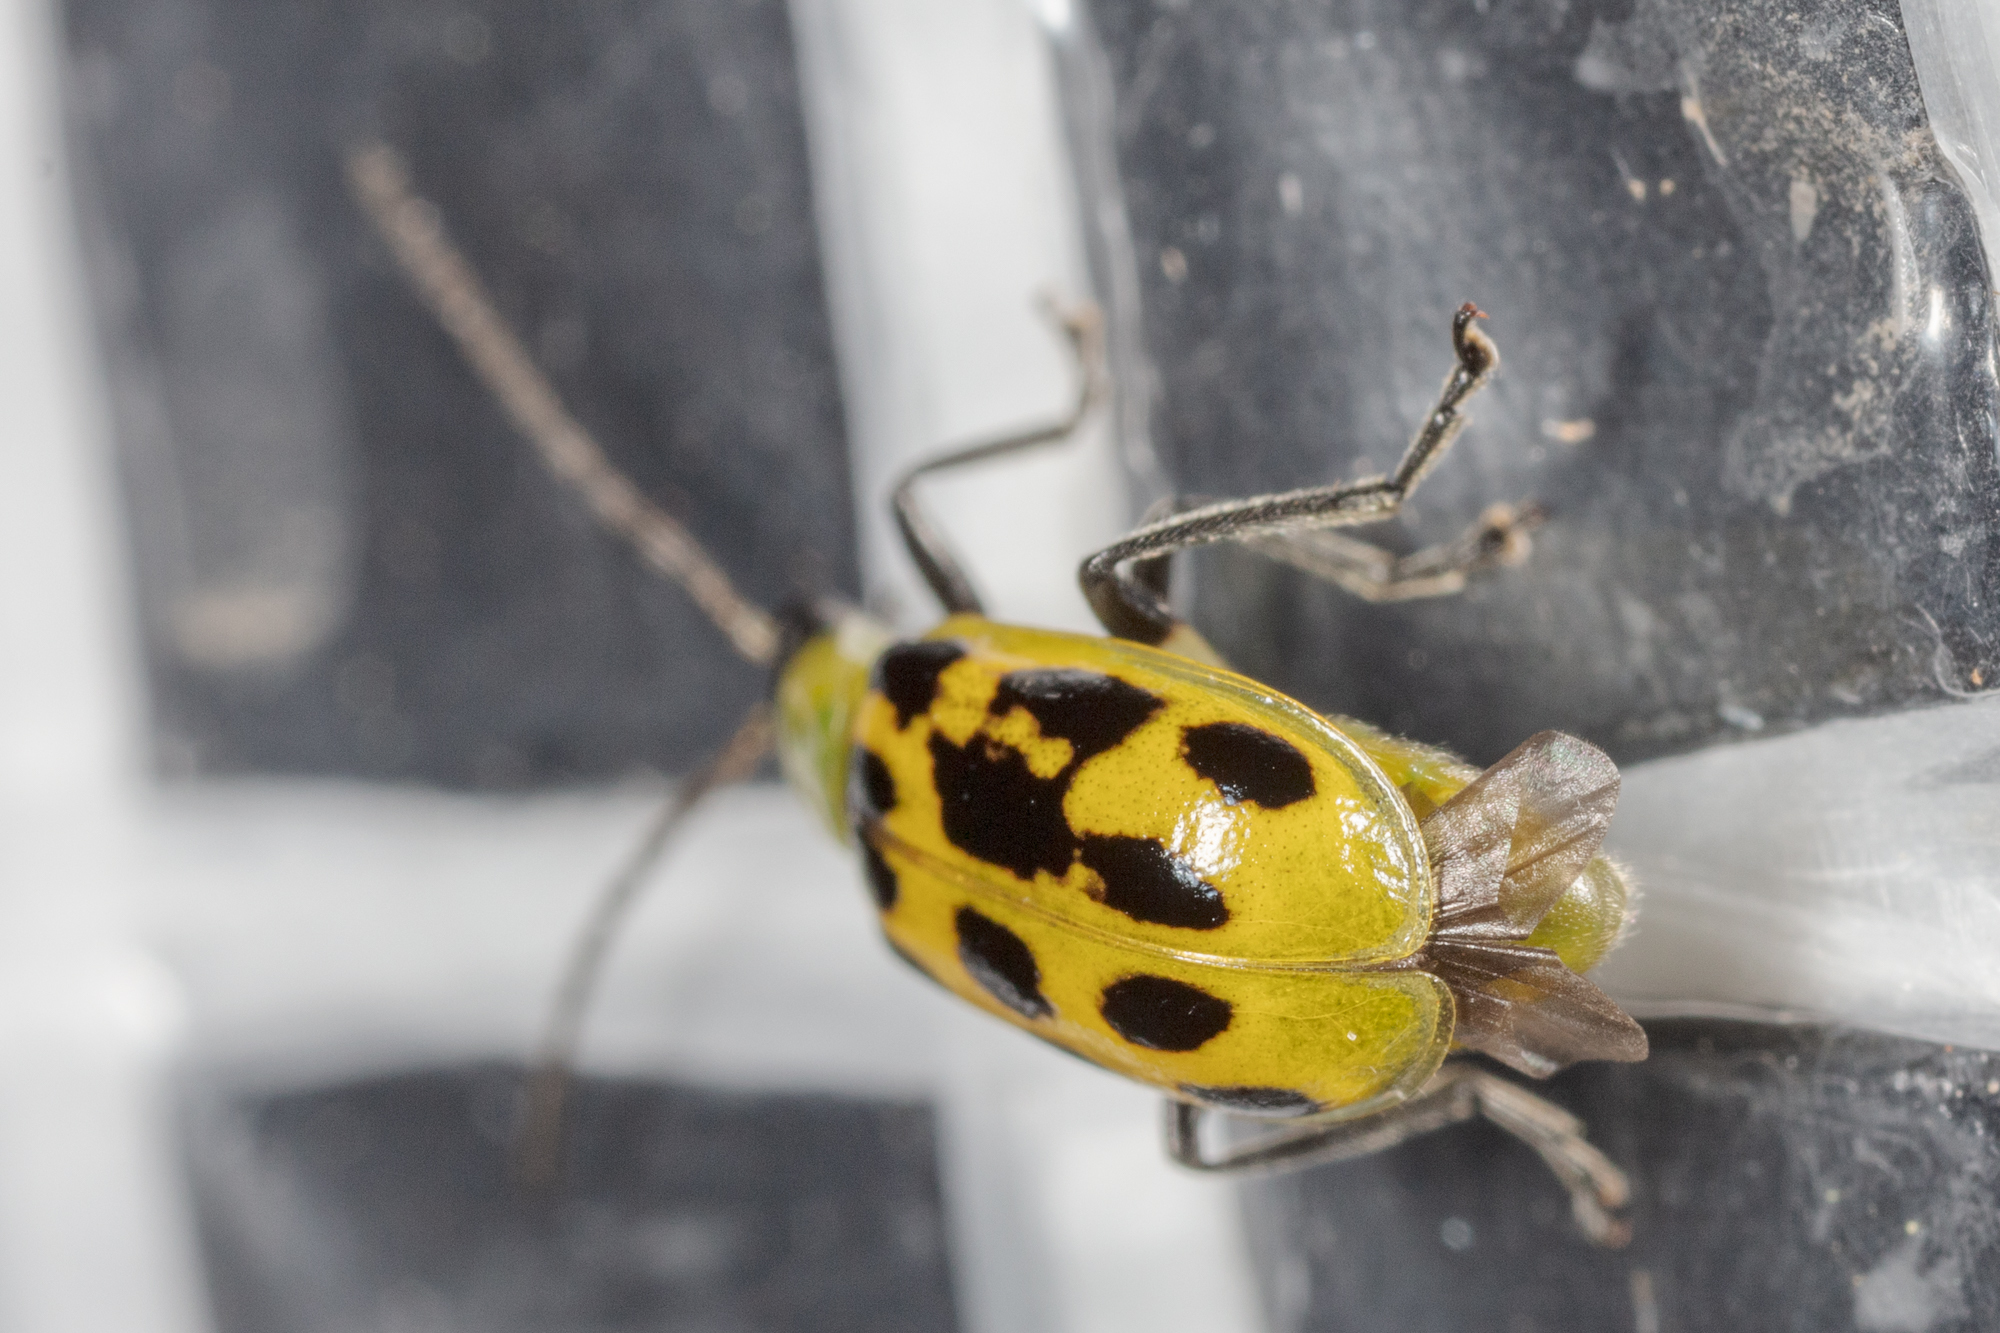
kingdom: Animalia
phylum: Arthropoda
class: Insecta
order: Coleoptera
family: Chrysomelidae
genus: Diabrotica
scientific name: Diabrotica undecimpunctata
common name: Spotted cucumber beetle
